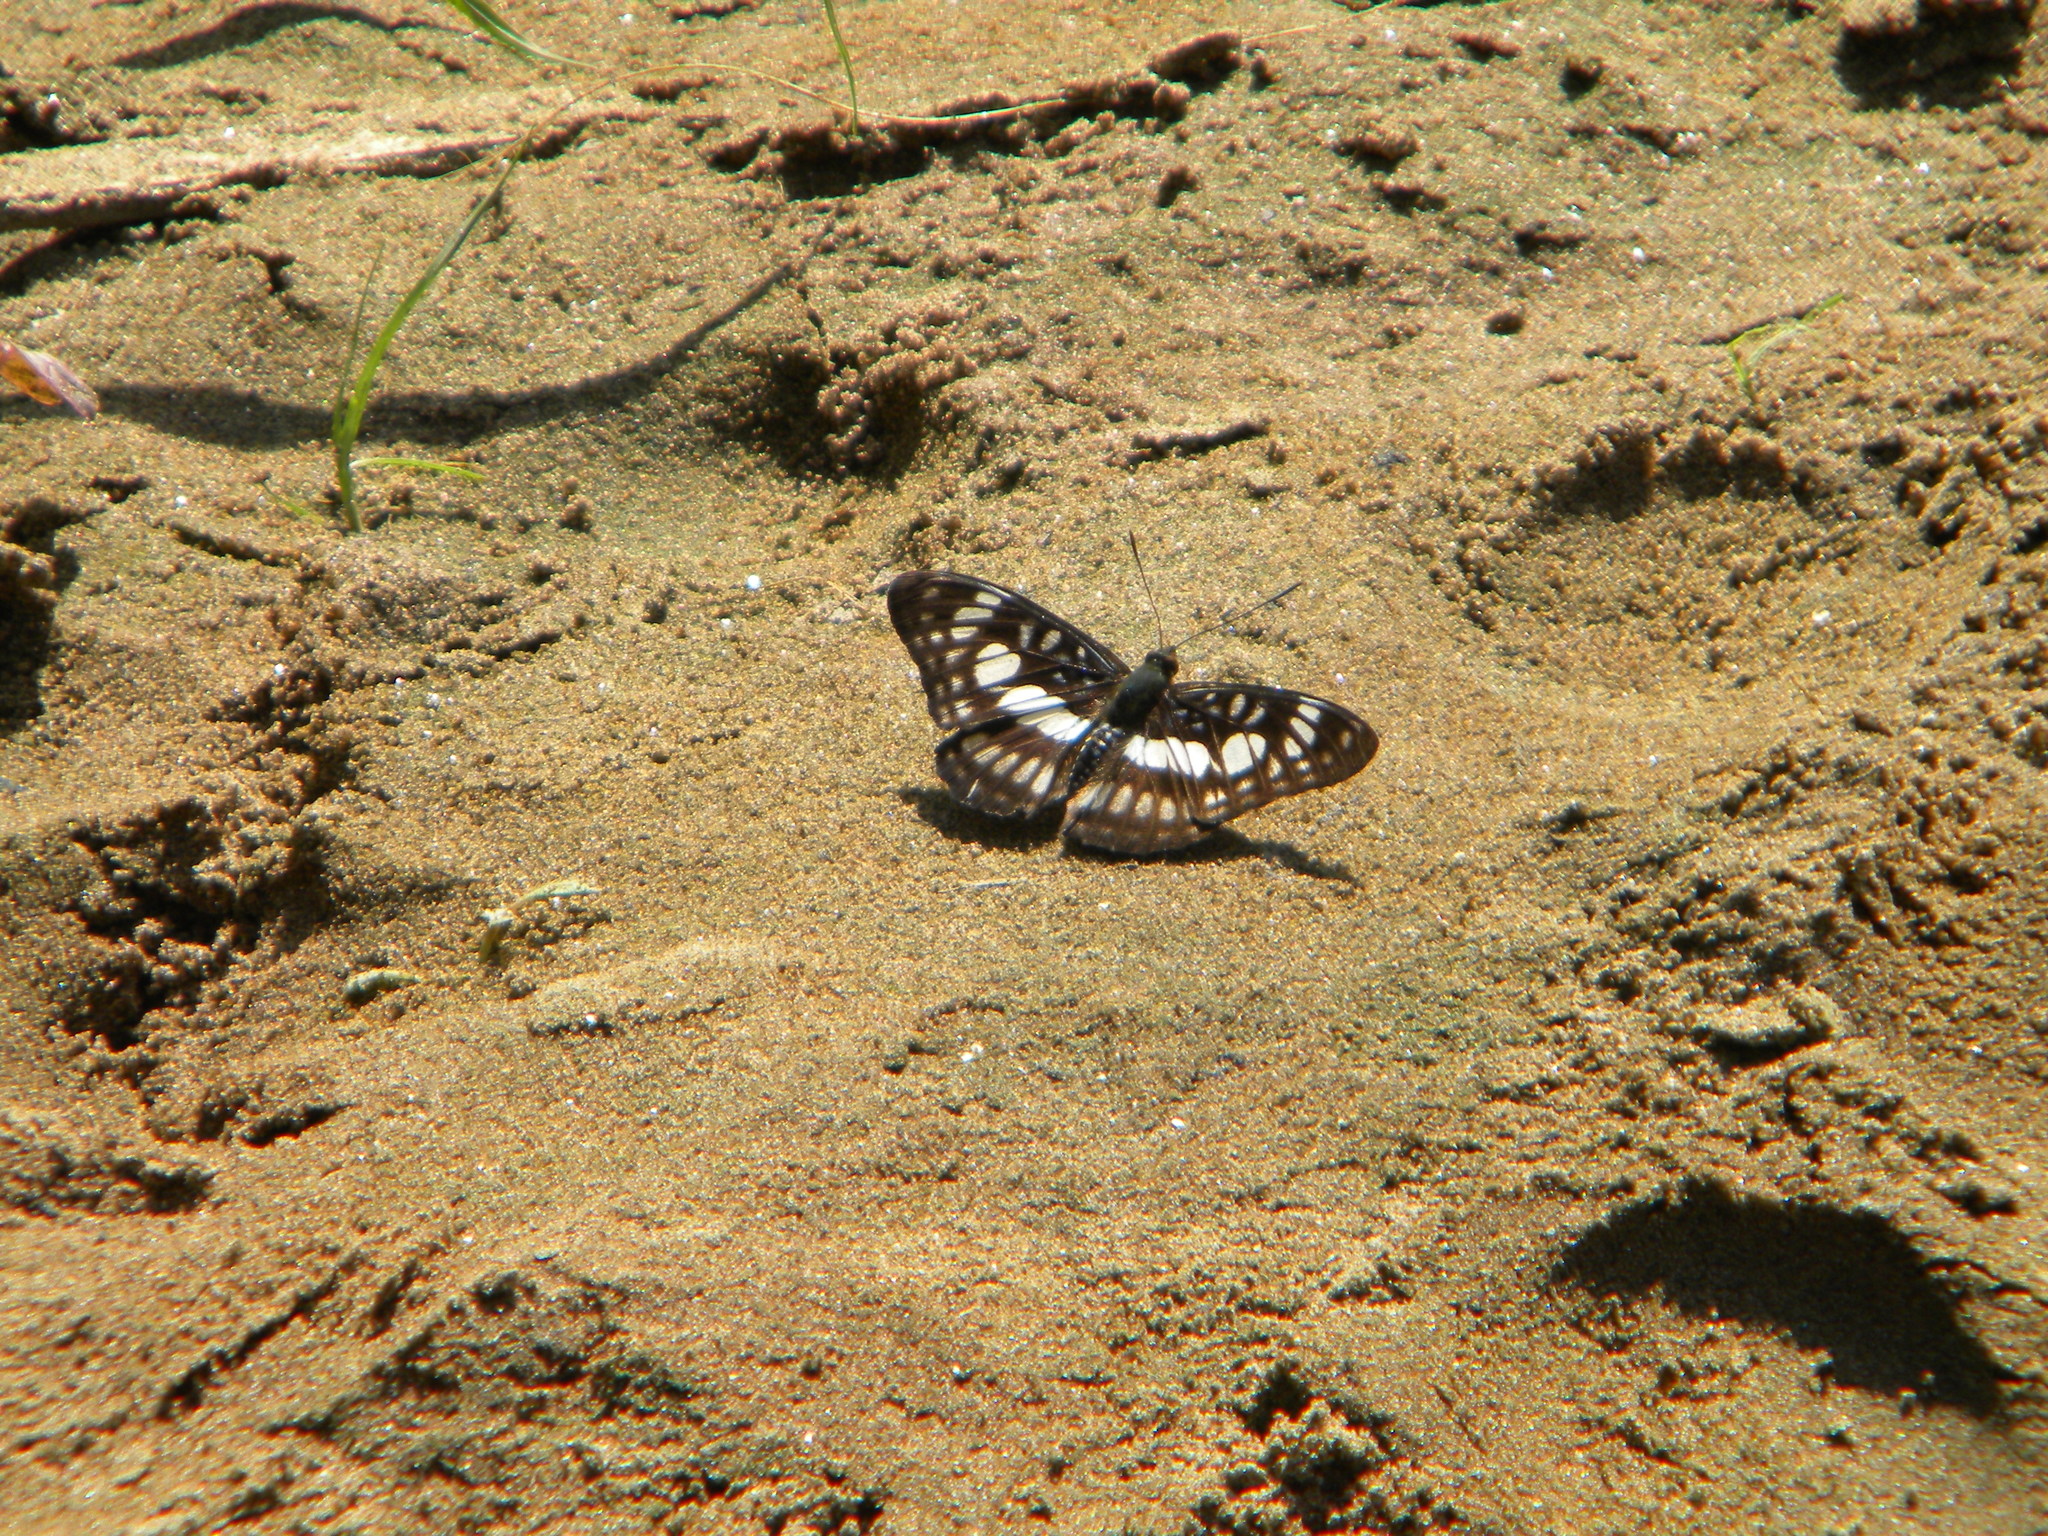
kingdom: Animalia
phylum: Arthropoda
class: Insecta
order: Lepidoptera
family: Nymphalidae
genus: Parathyma
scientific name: Parathyma ranga
